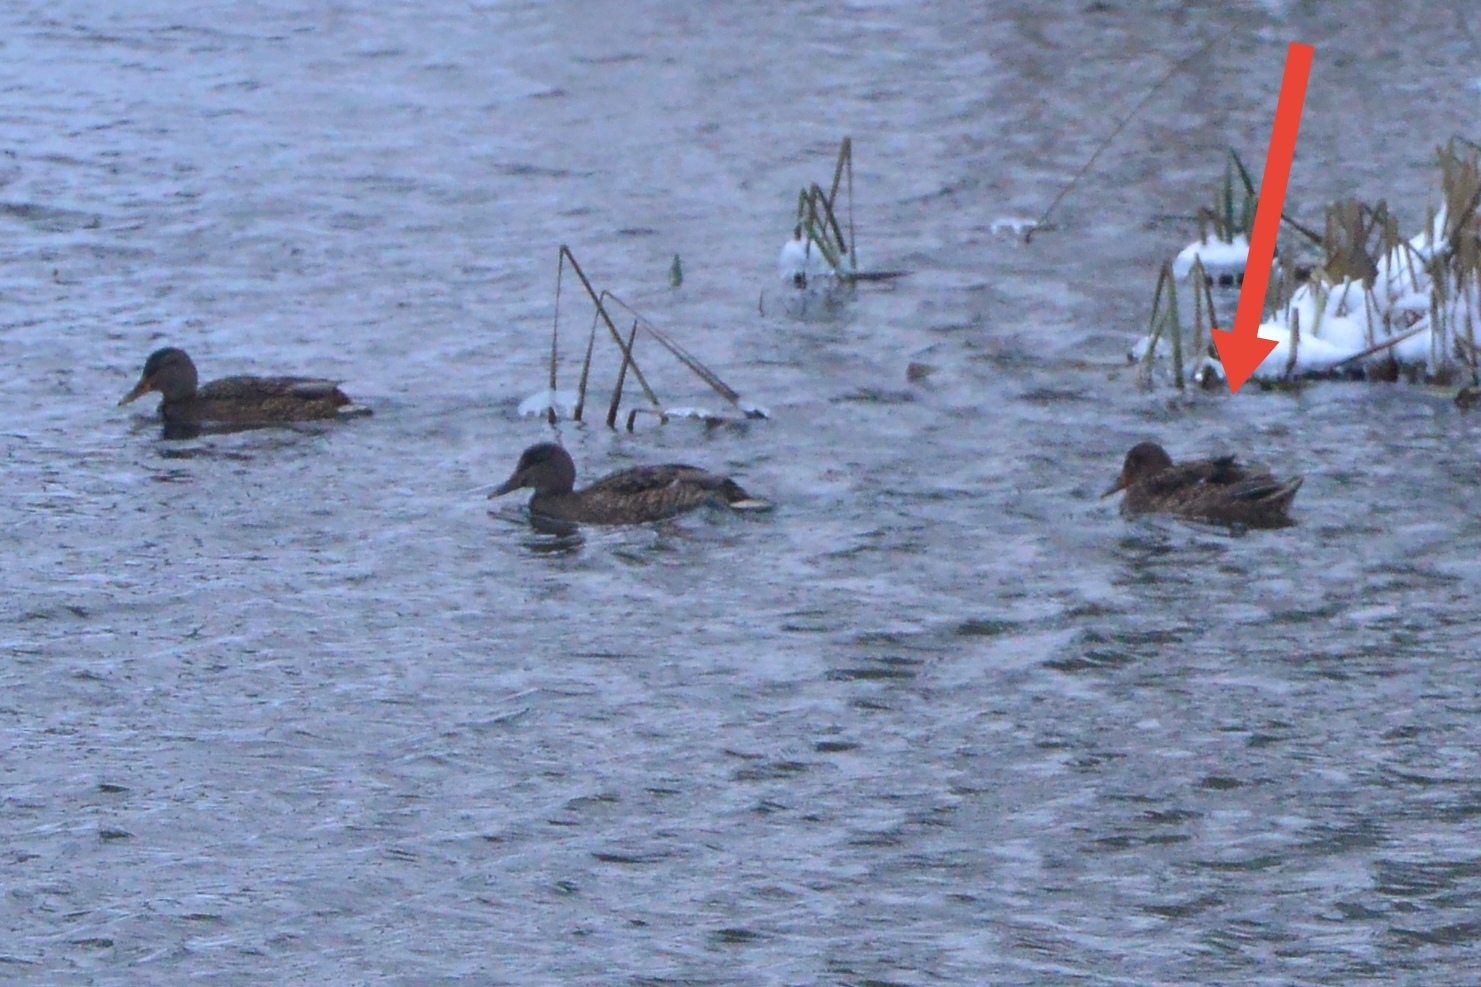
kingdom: Animalia
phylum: Chordata
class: Aves
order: Anseriformes
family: Anatidae
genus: Anas
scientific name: Anas platyrhynchos
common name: Mallard
